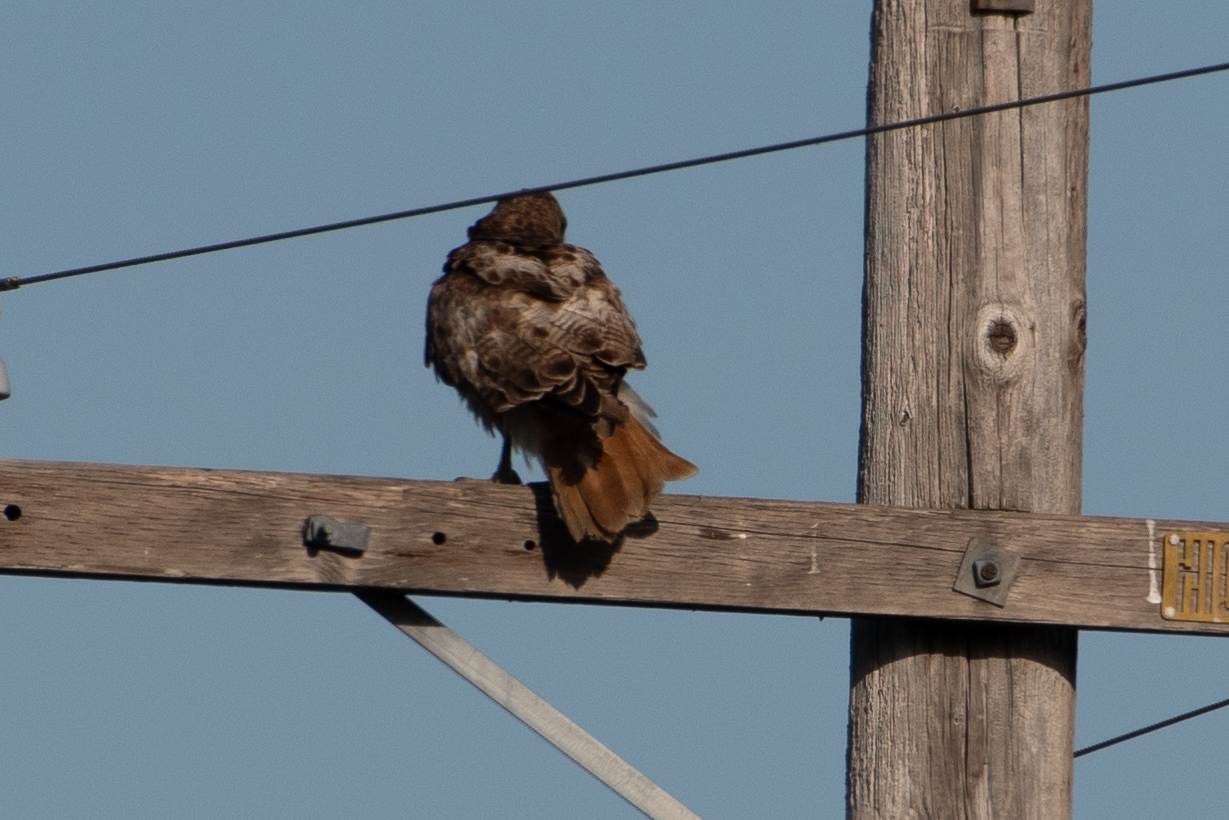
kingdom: Animalia
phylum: Chordata
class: Aves
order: Accipitriformes
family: Accipitridae
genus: Buteo
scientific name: Buteo jamaicensis
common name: Red-tailed hawk
